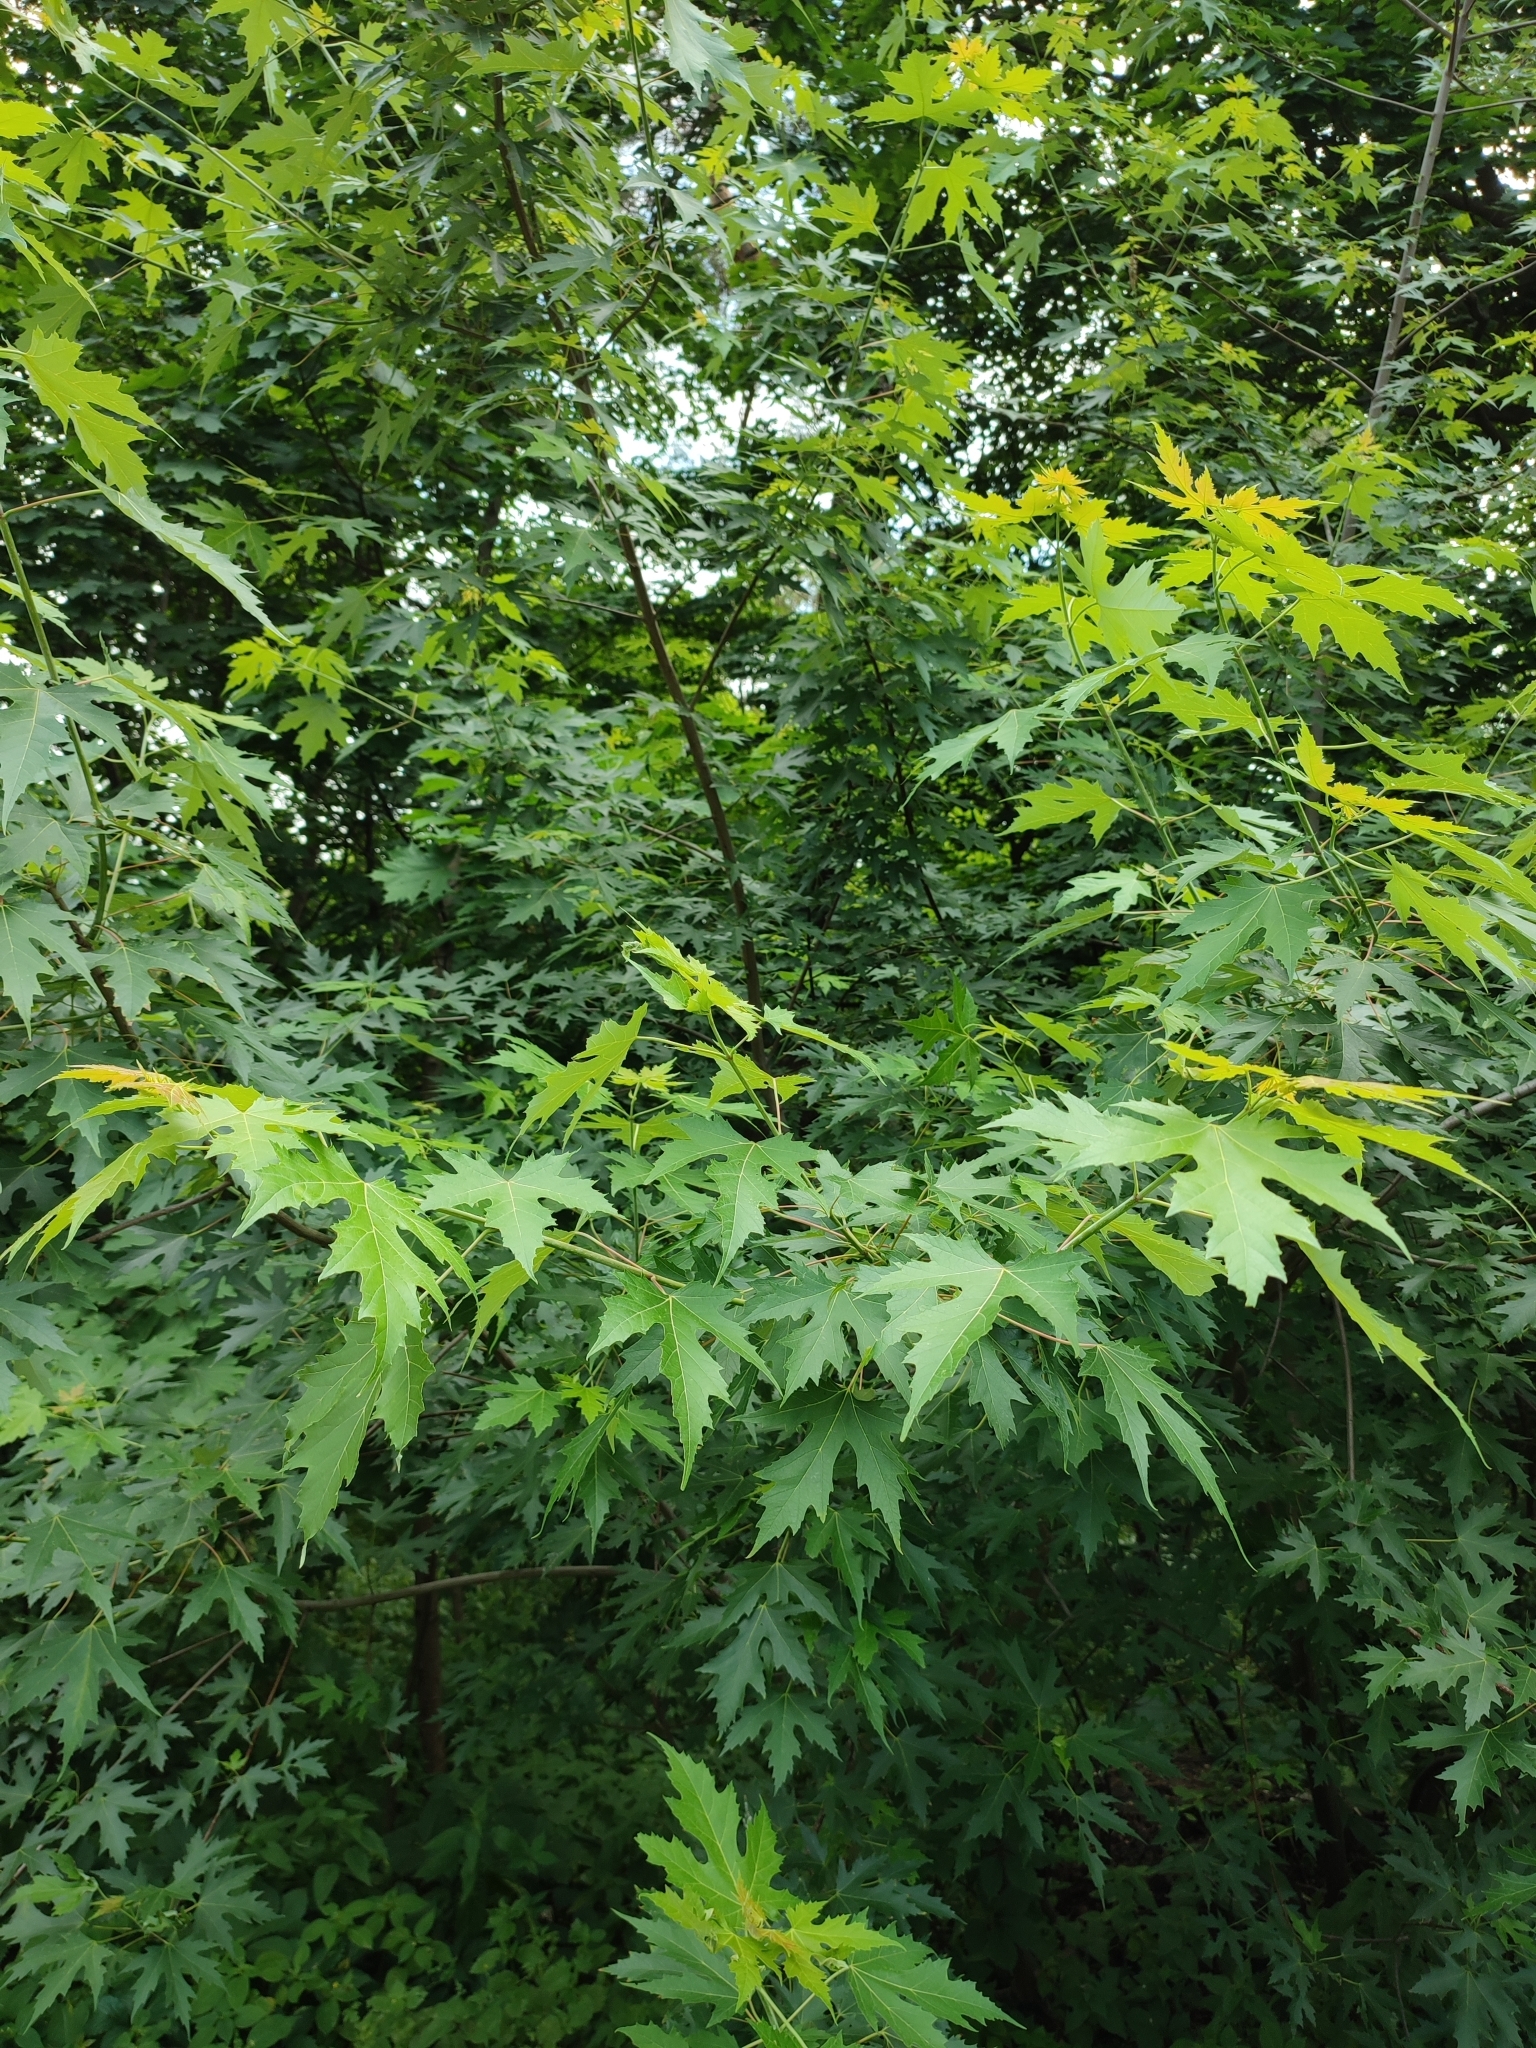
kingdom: Plantae
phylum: Tracheophyta
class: Magnoliopsida
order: Sapindales
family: Sapindaceae
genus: Acer
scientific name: Acer saccharinum
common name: Silver maple
